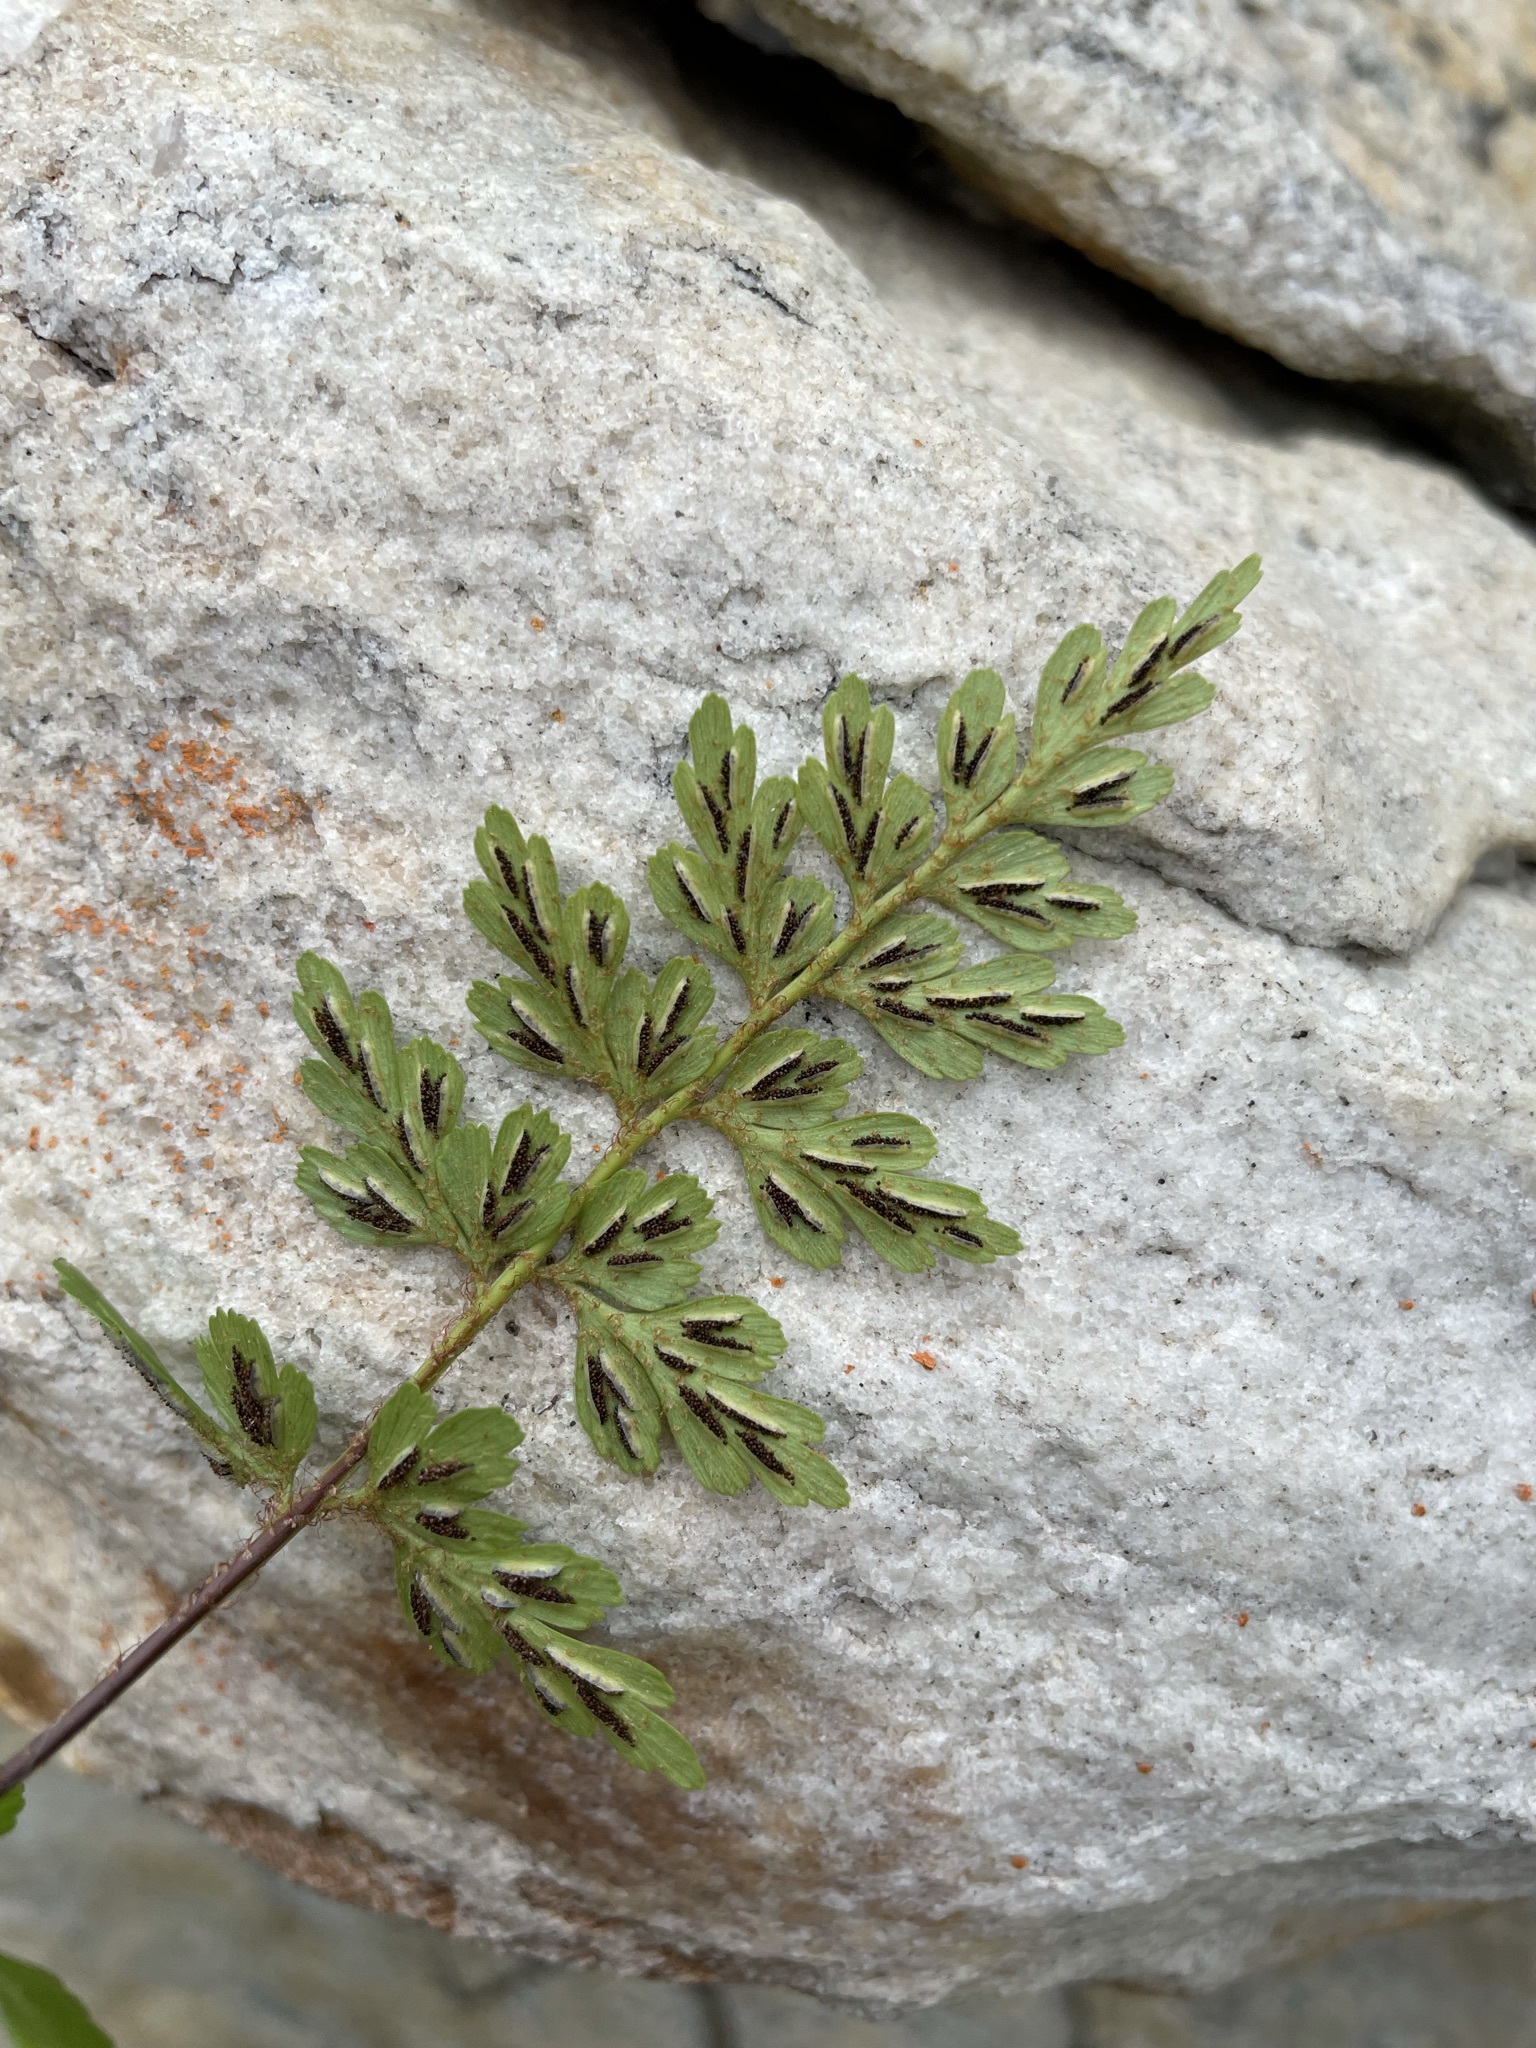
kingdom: Plantae
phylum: Tracheophyta
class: Polypodiopsida
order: Polypodiales
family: Aspleniaceae
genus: Asplenium
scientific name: Asplenium aethiopicum
